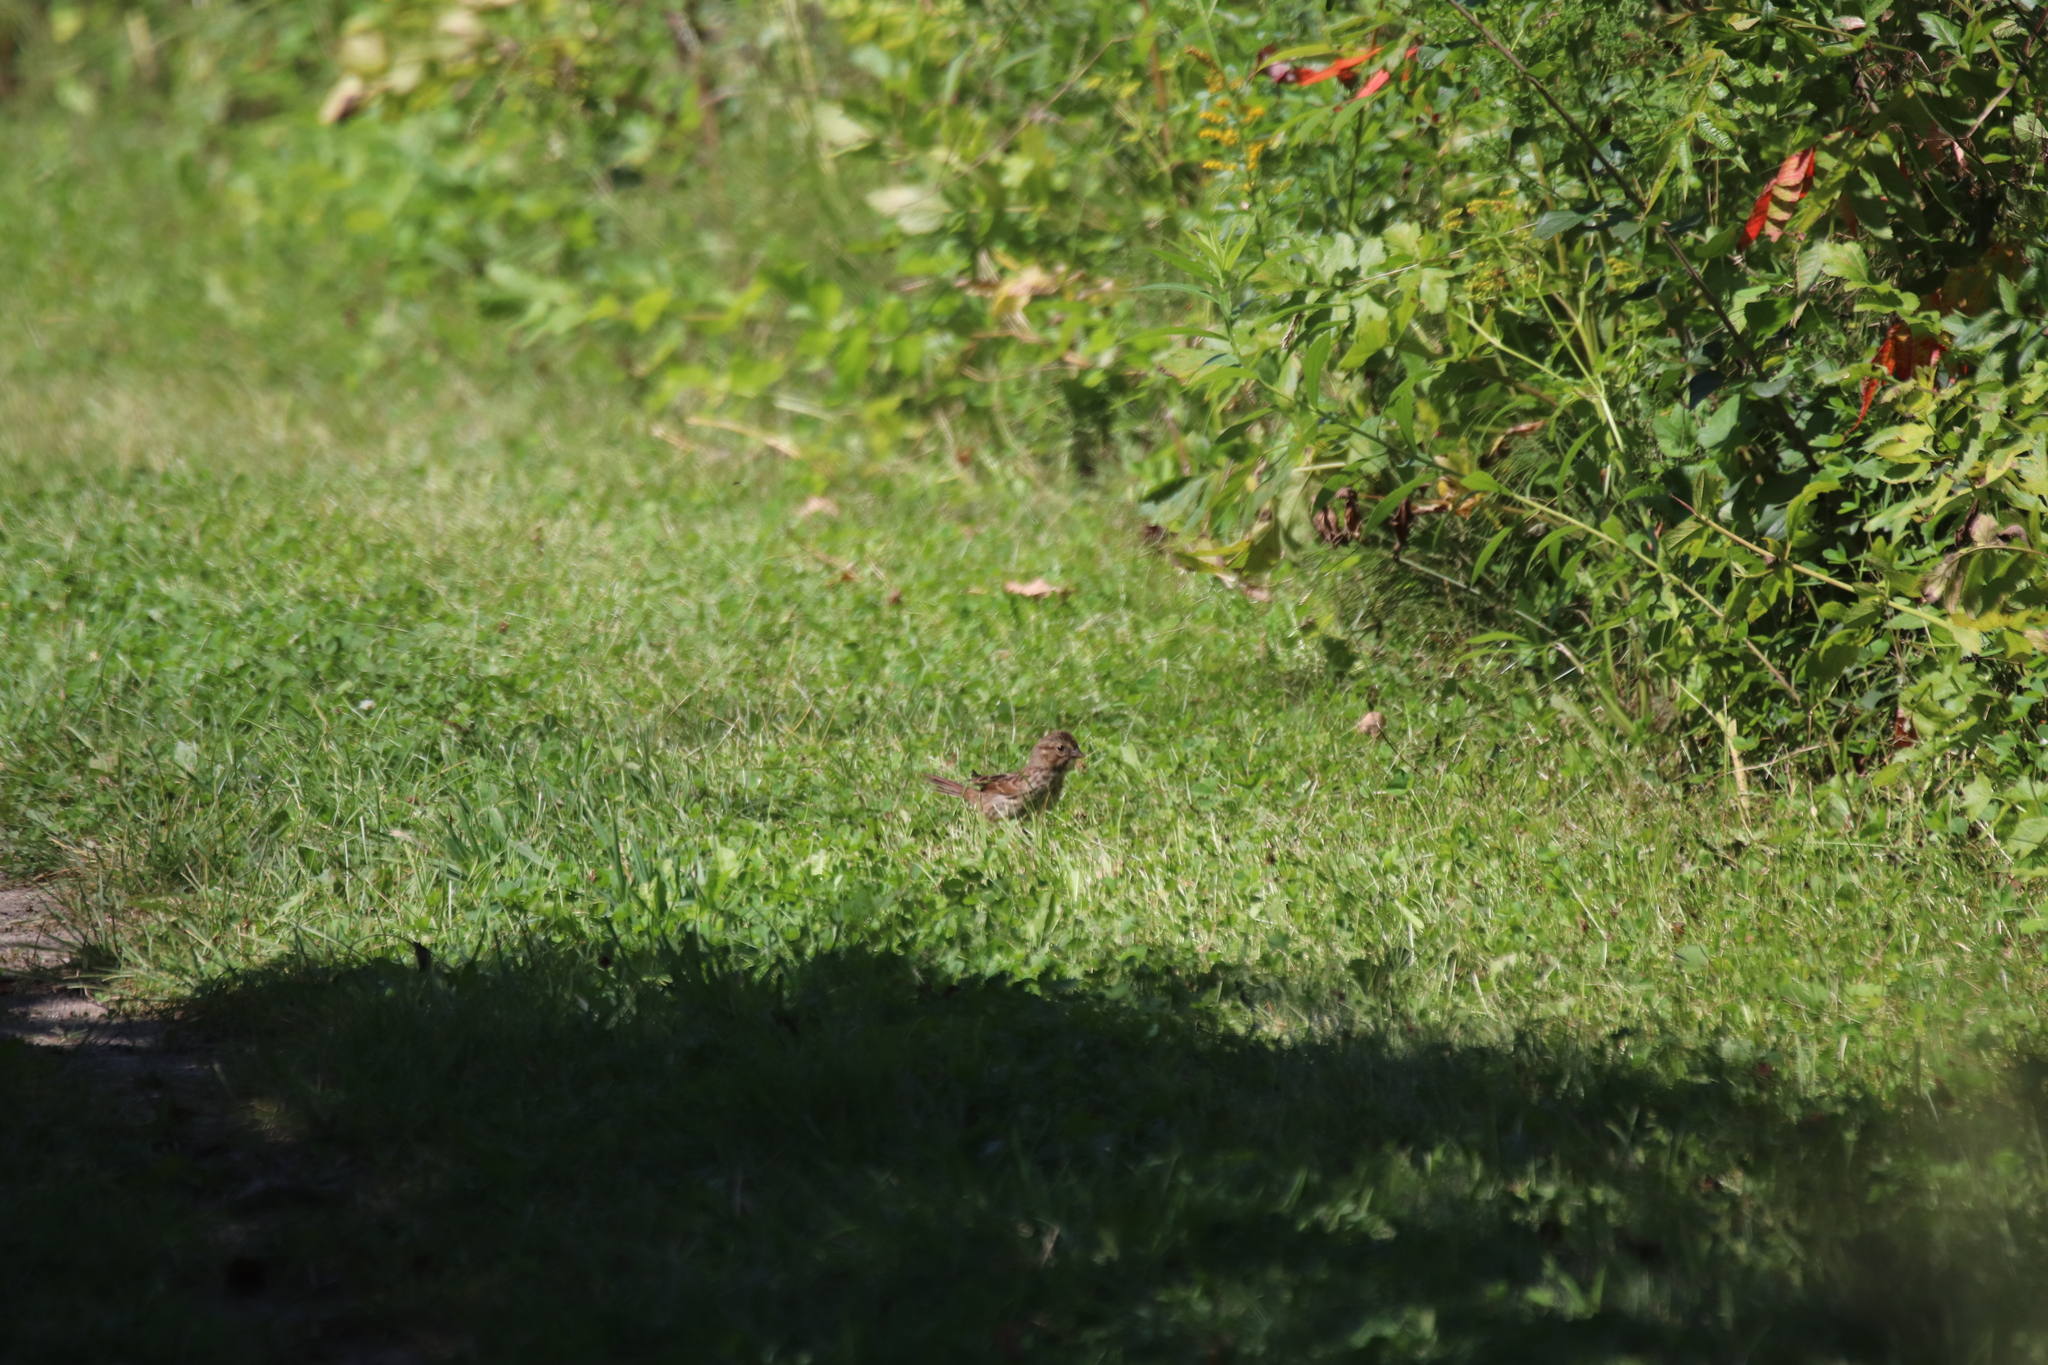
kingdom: Animalia
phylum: Chordata
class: Aves
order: Passeriformes
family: Passerellidae
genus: Melospiza
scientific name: Melospiza melodia
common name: Song sparrow
